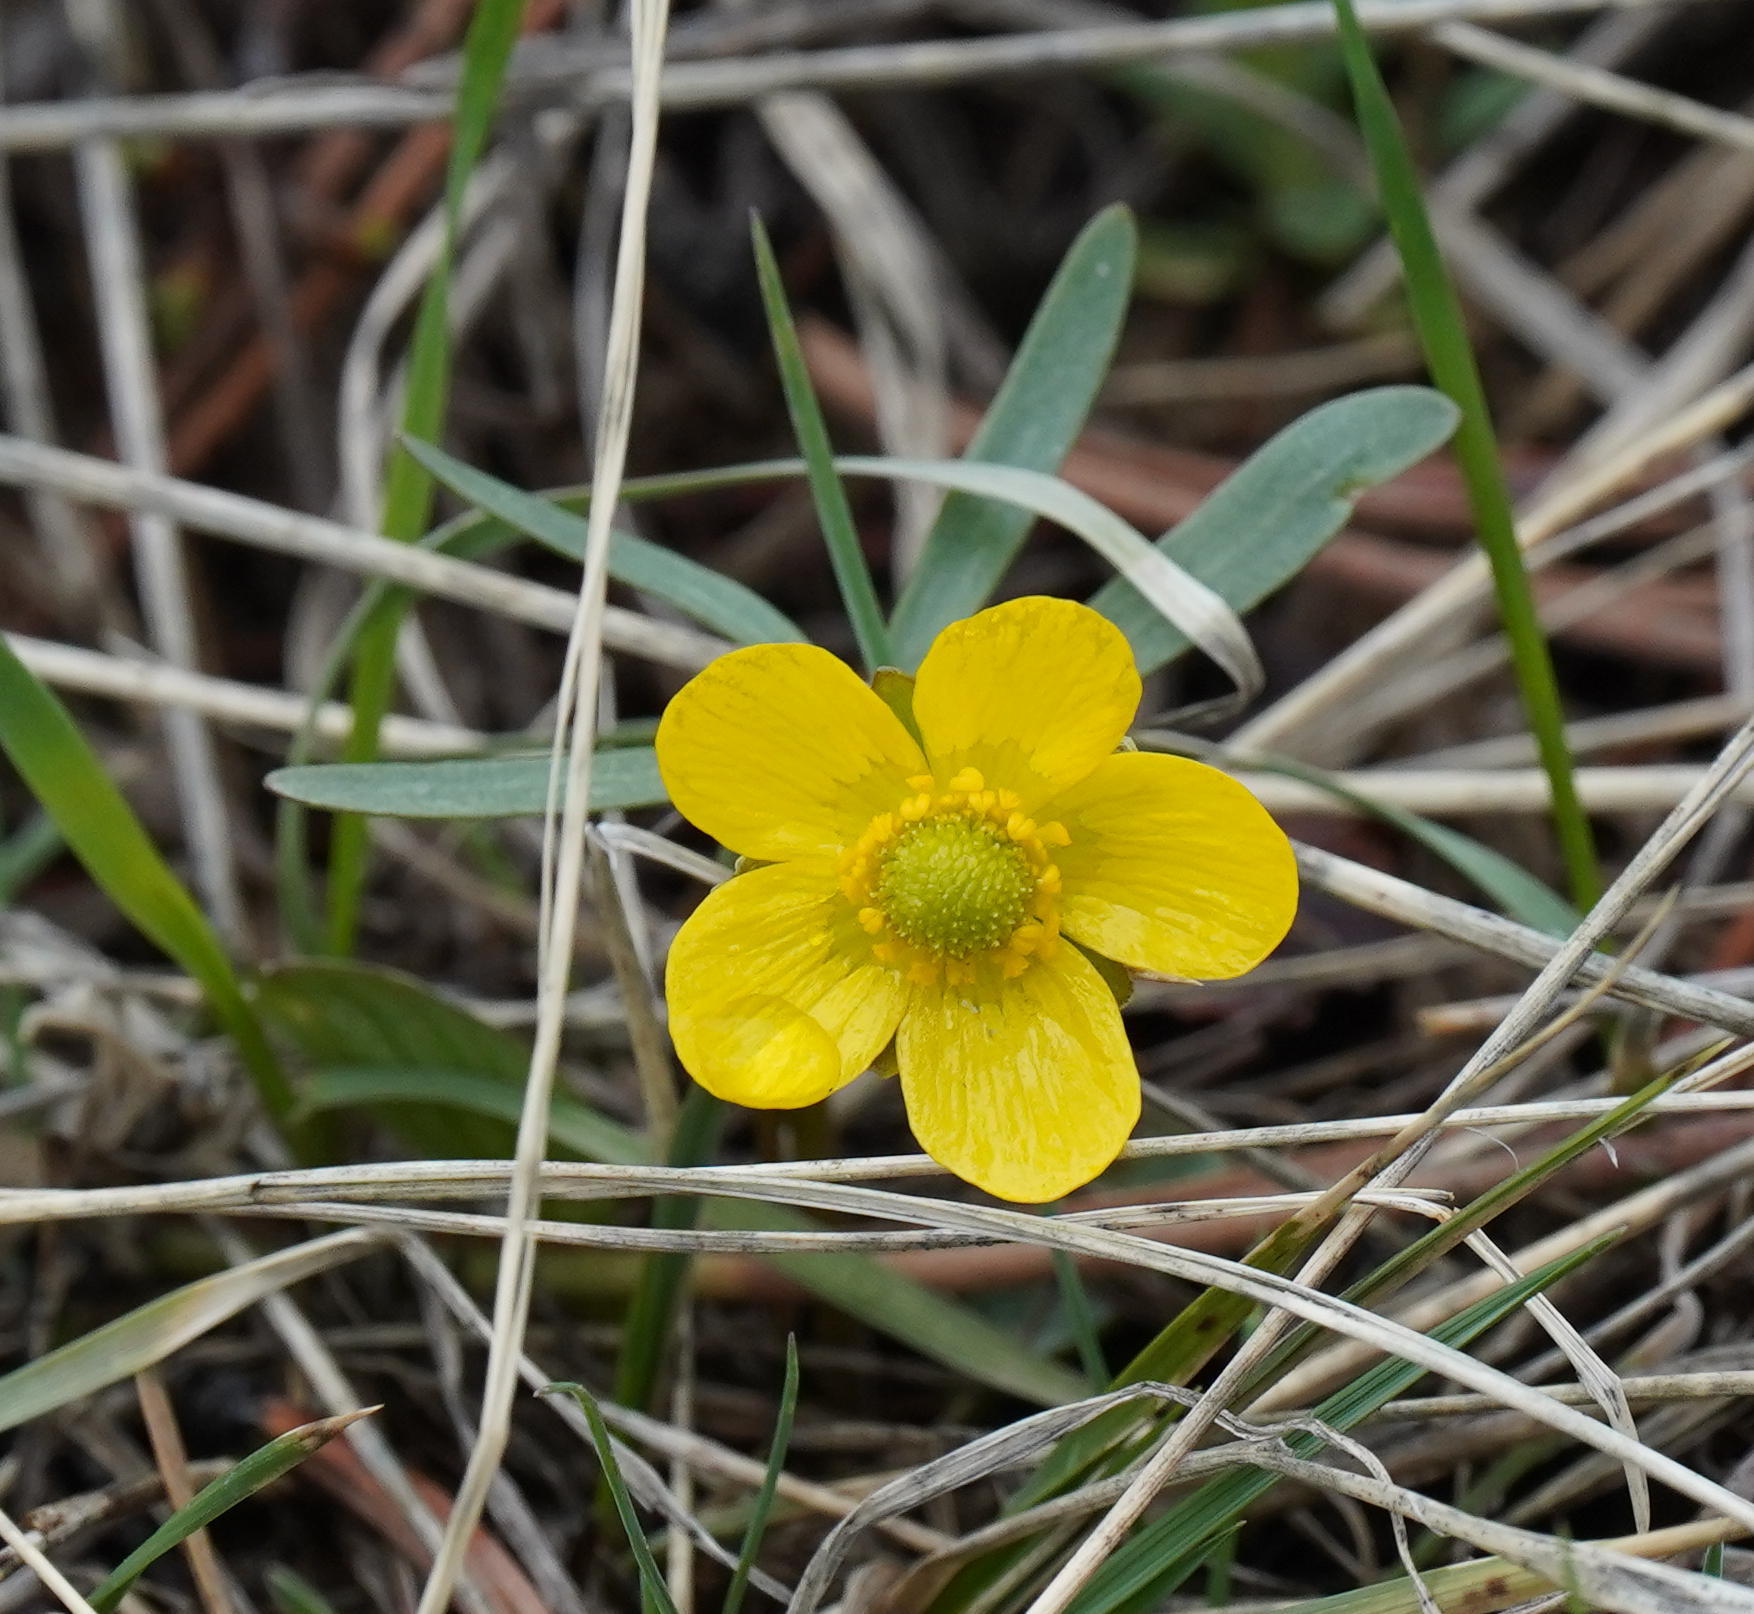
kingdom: Plantae
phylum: Tracheophyta
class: Magnoliopsida
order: Ranunculales
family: Ranunculaceae
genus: Ranunculus
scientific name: Ranunculus glaberrimus
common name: Sagebrush buttercup
